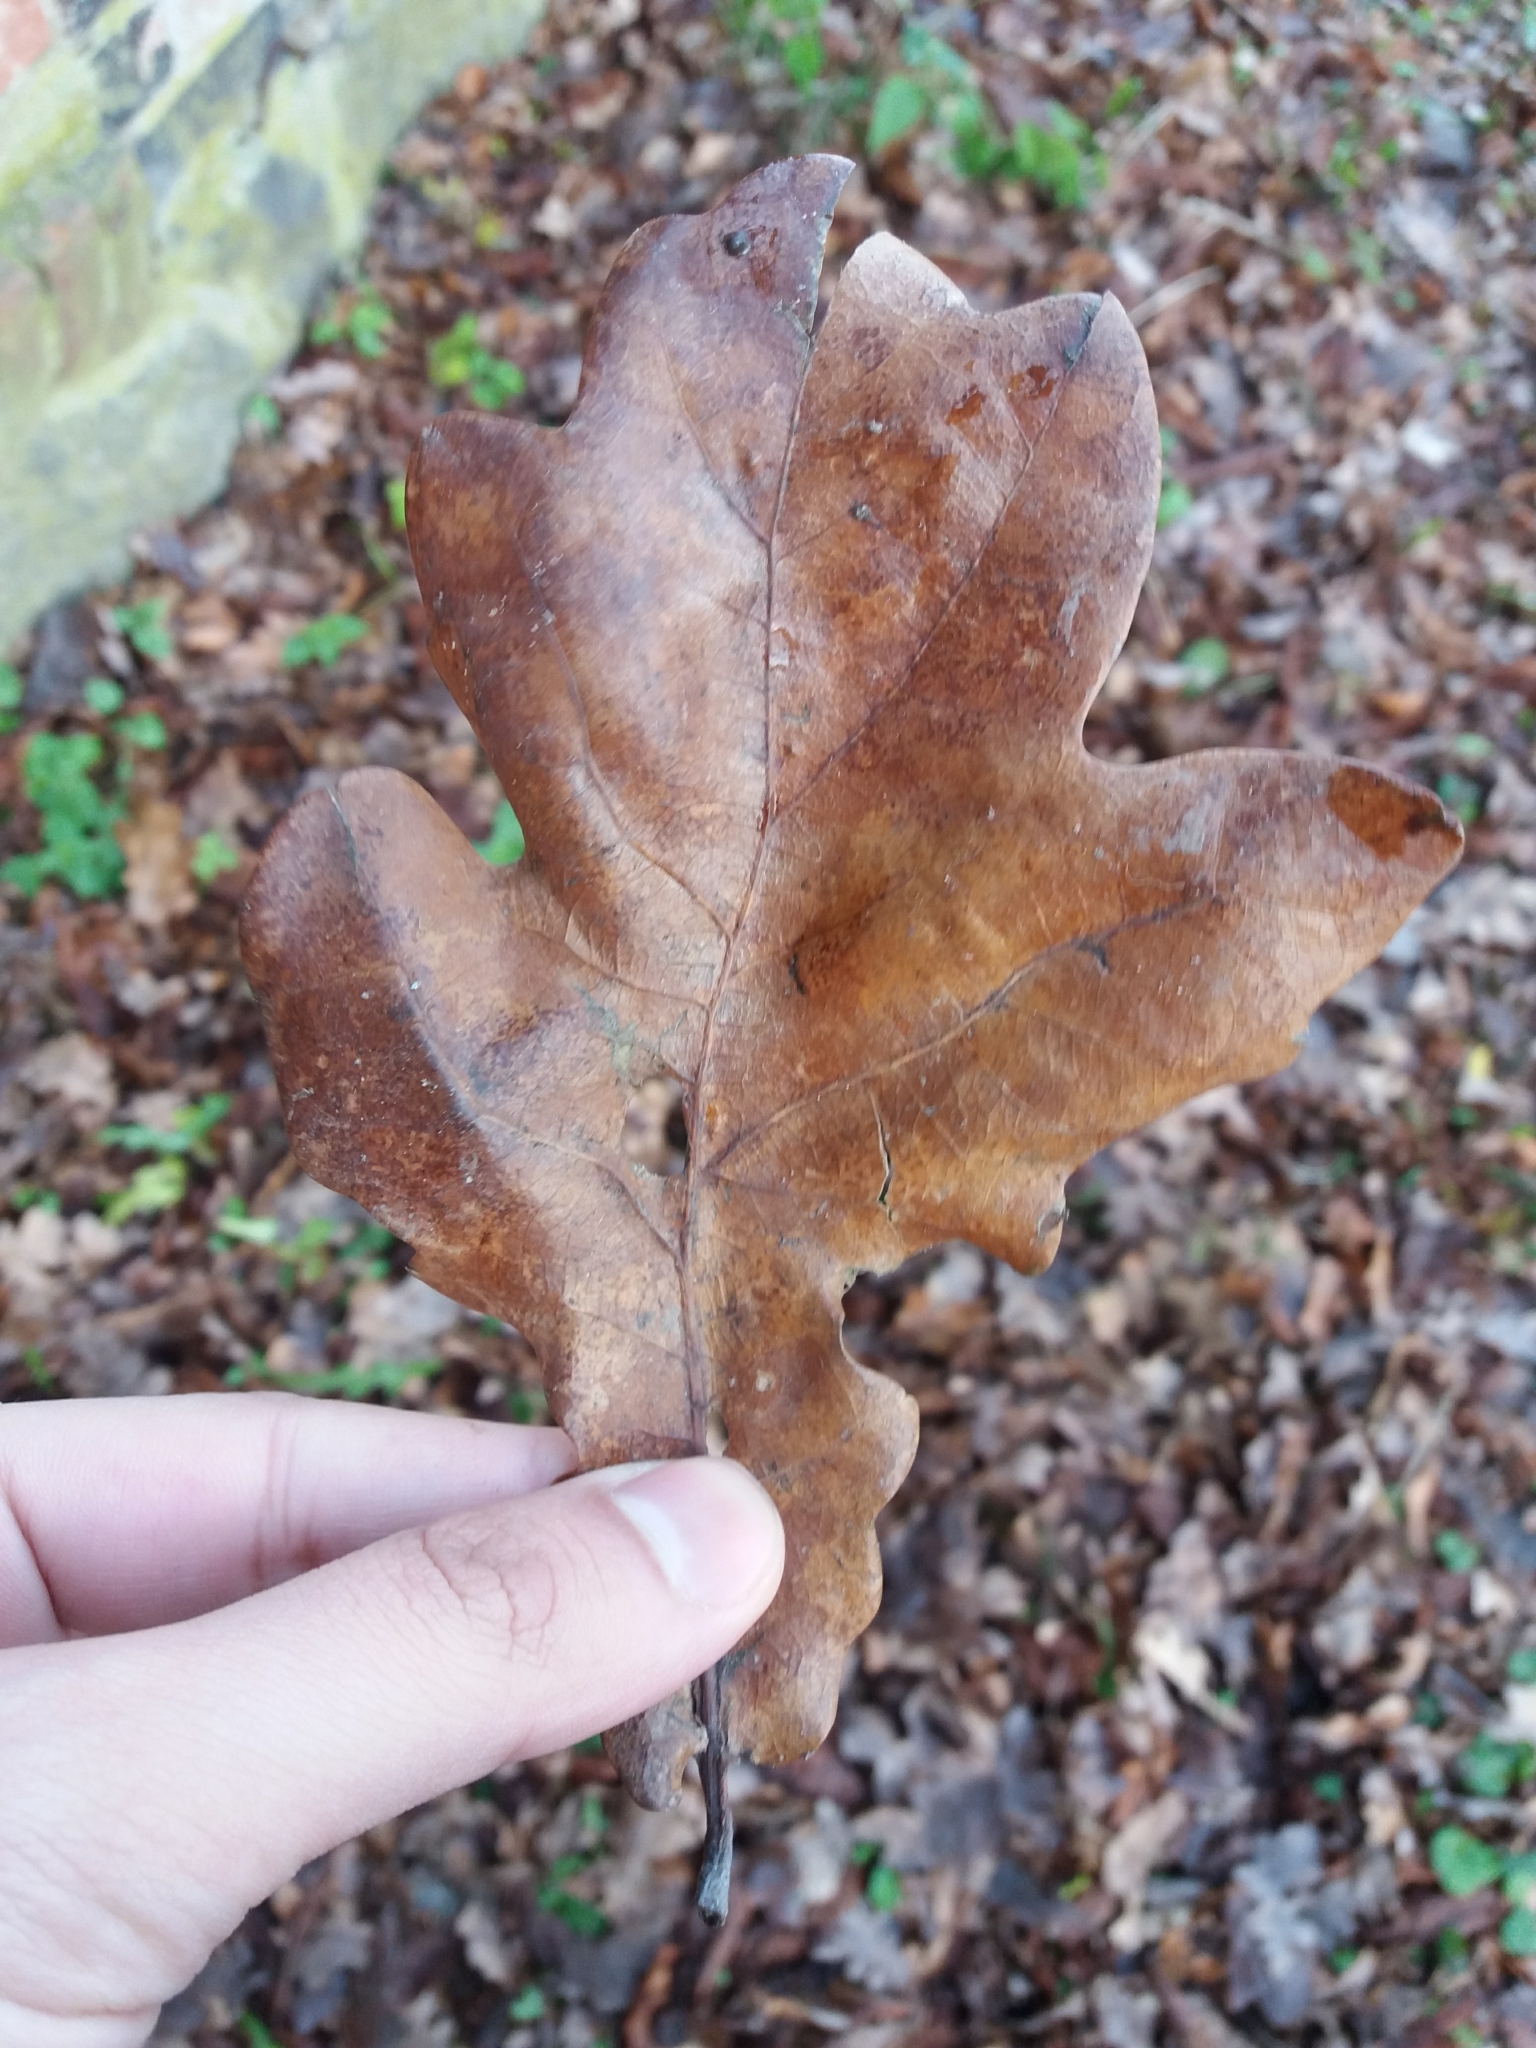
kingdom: Plantae
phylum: Tracheophyta
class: Magnoliopsida
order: Fagales
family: Fagaceae
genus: Quercus
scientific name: Quercus robur
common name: Pedunculate oak
